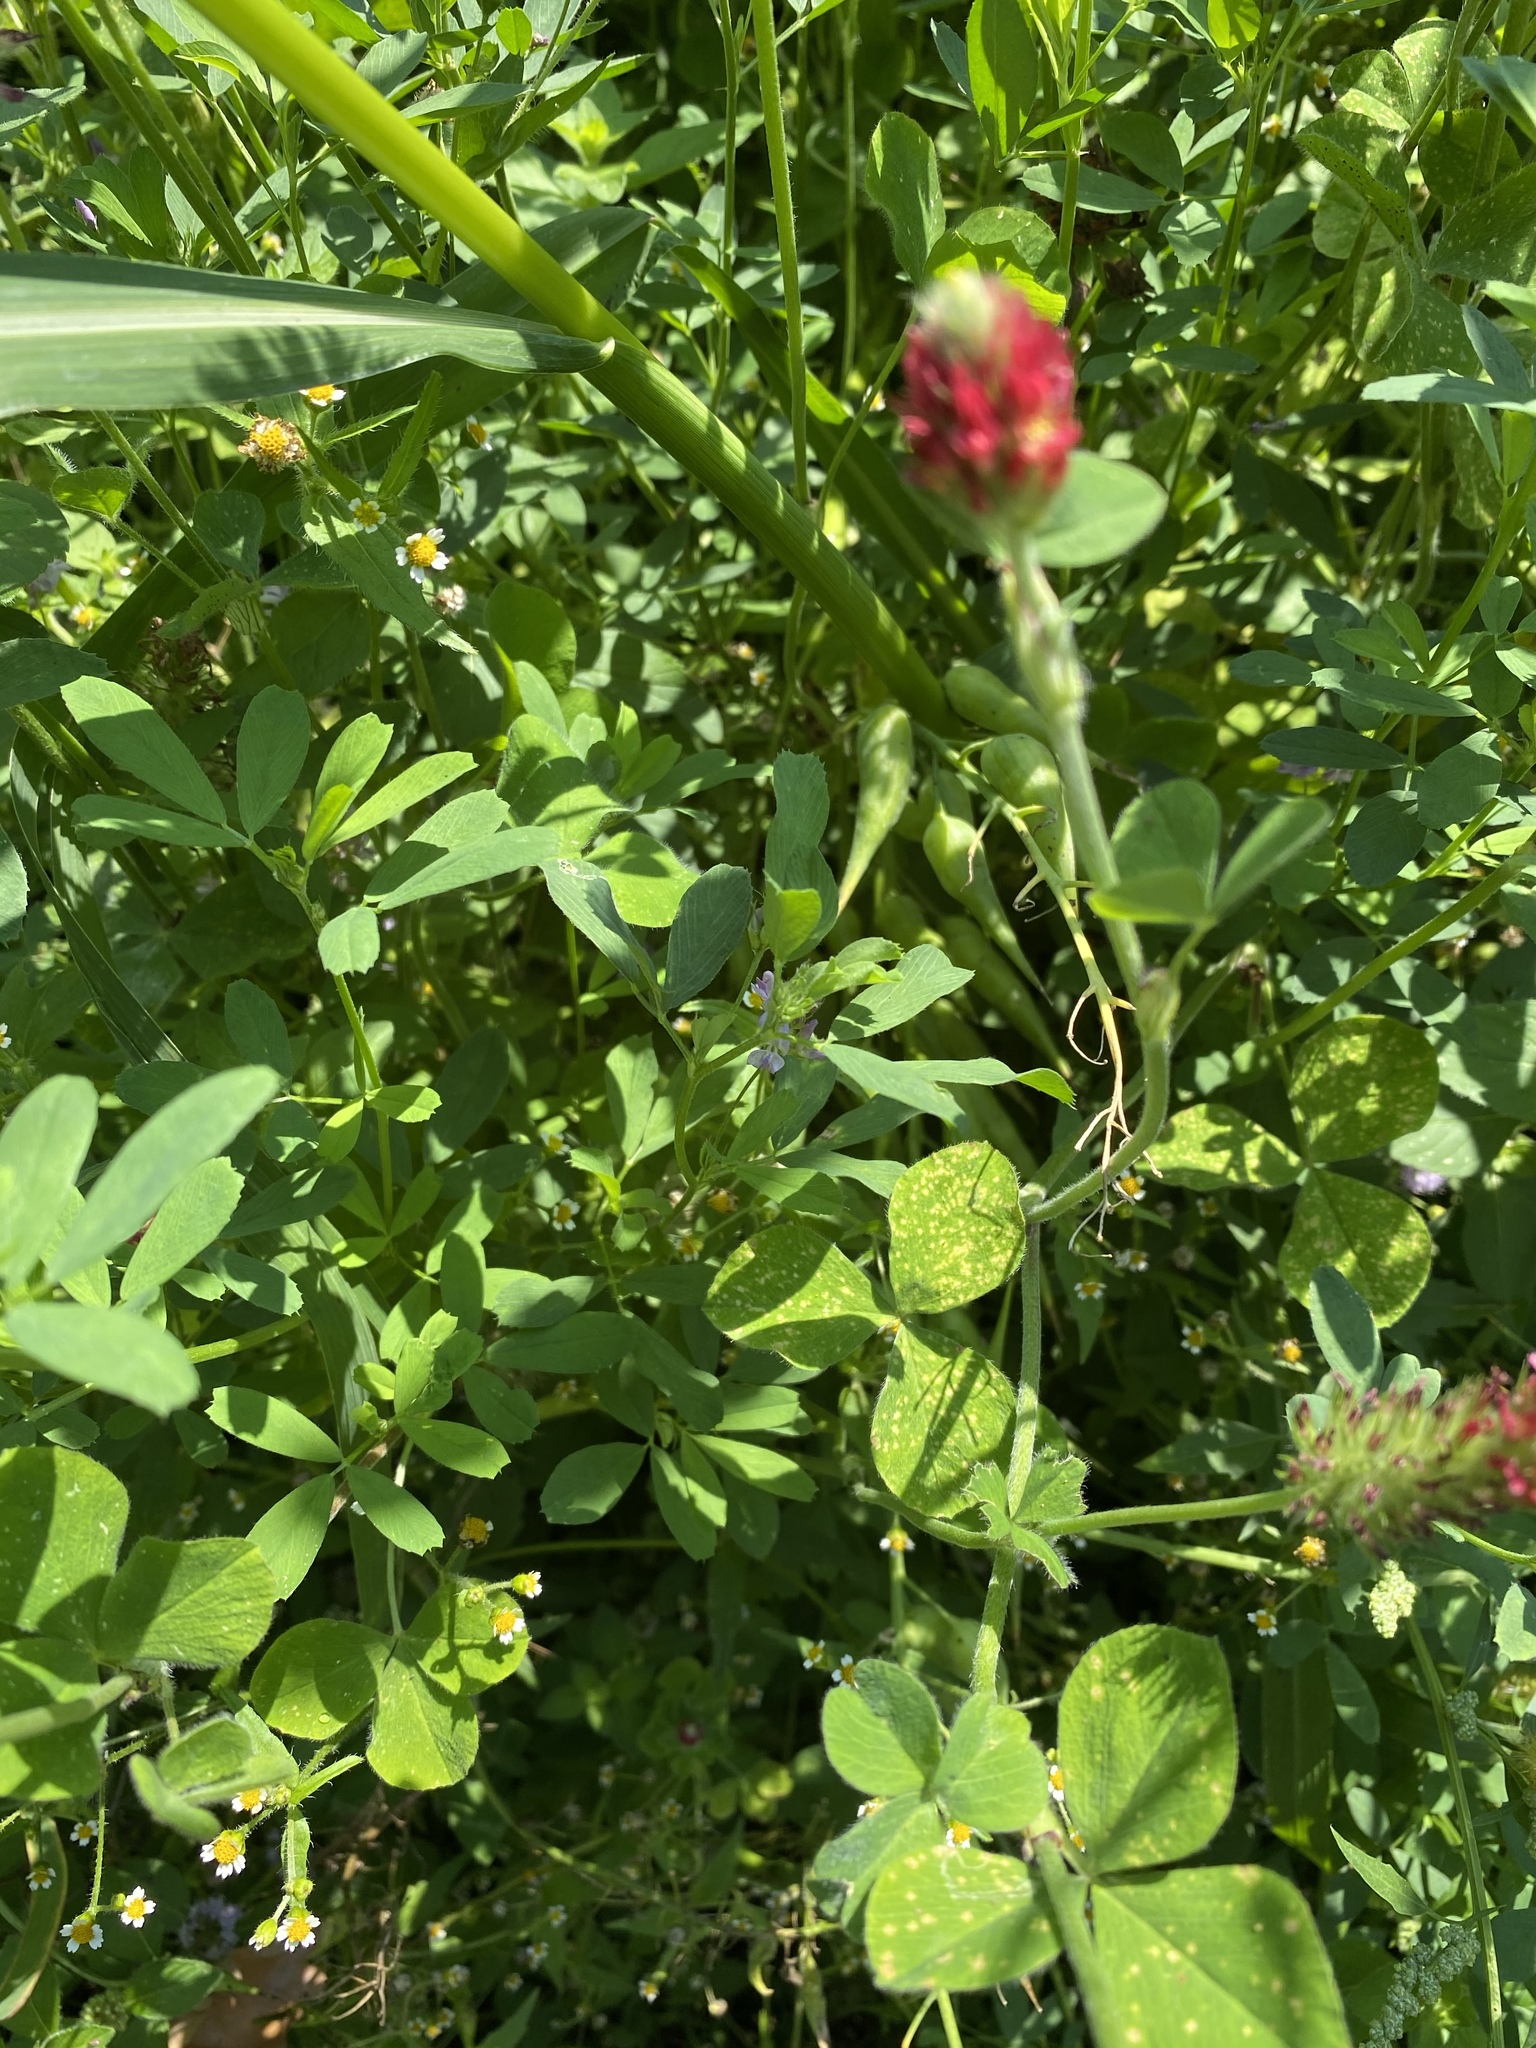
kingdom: Plantae
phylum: Tracheophyta
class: Magnoliopsida
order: Fabales
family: Fabaceae
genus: Trifolium
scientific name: Trifolium incarnatum
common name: Crimson clover
